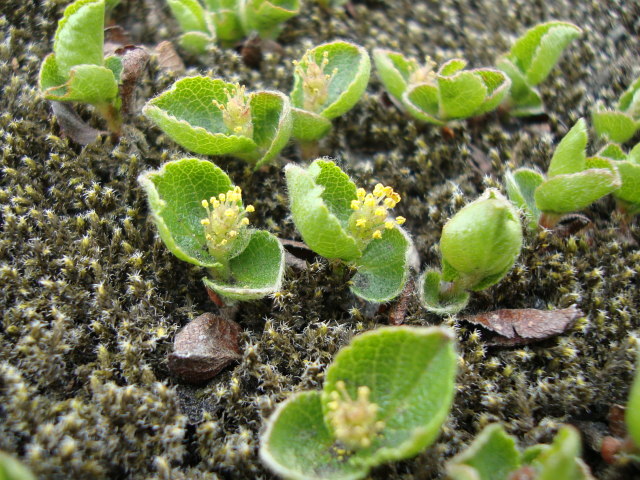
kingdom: Plantae
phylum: Tracheophyta
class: Magnoliopsida
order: Malpighiales
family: Salicaceae
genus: Salix
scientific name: Salix herbacea
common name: Dwarf willow
